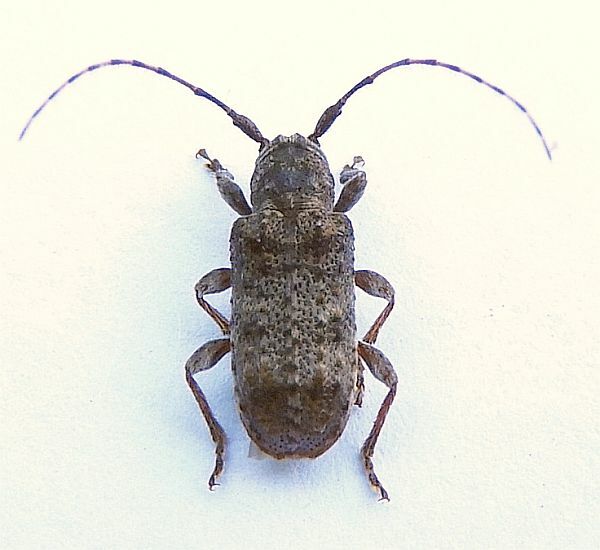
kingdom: Animalia
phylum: Arthropoda
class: Insecta
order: Coleoptera
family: Cerambycidae
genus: Ecyrus
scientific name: Ecyrus dasycerus
